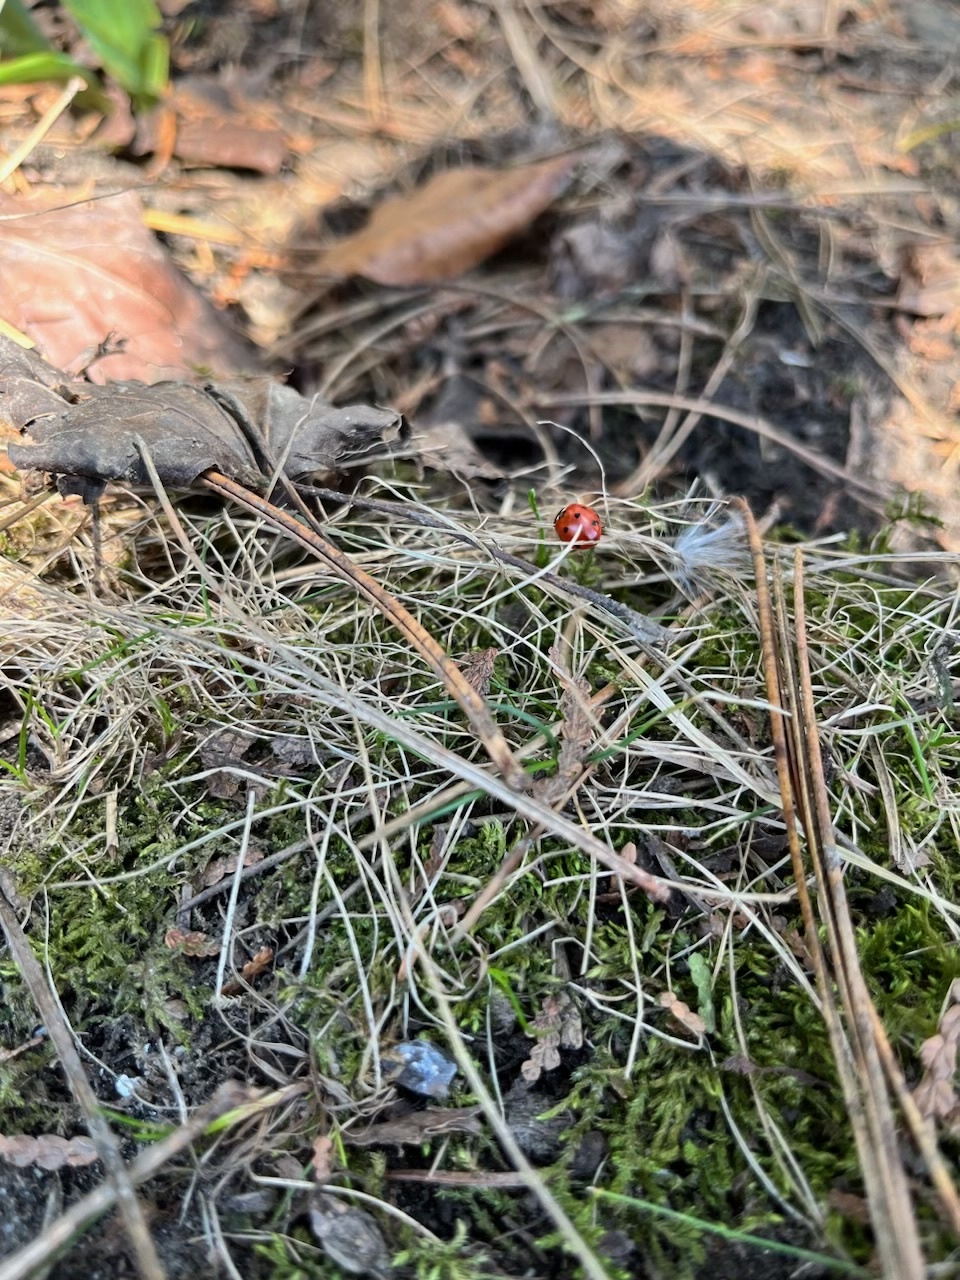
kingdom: Animalia
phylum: Arthropoda
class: Insecta
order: Coleoptera
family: Coccinellidae
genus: Coccinella
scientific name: Coccinella septempunctata
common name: Sevenspotted lady beetle
